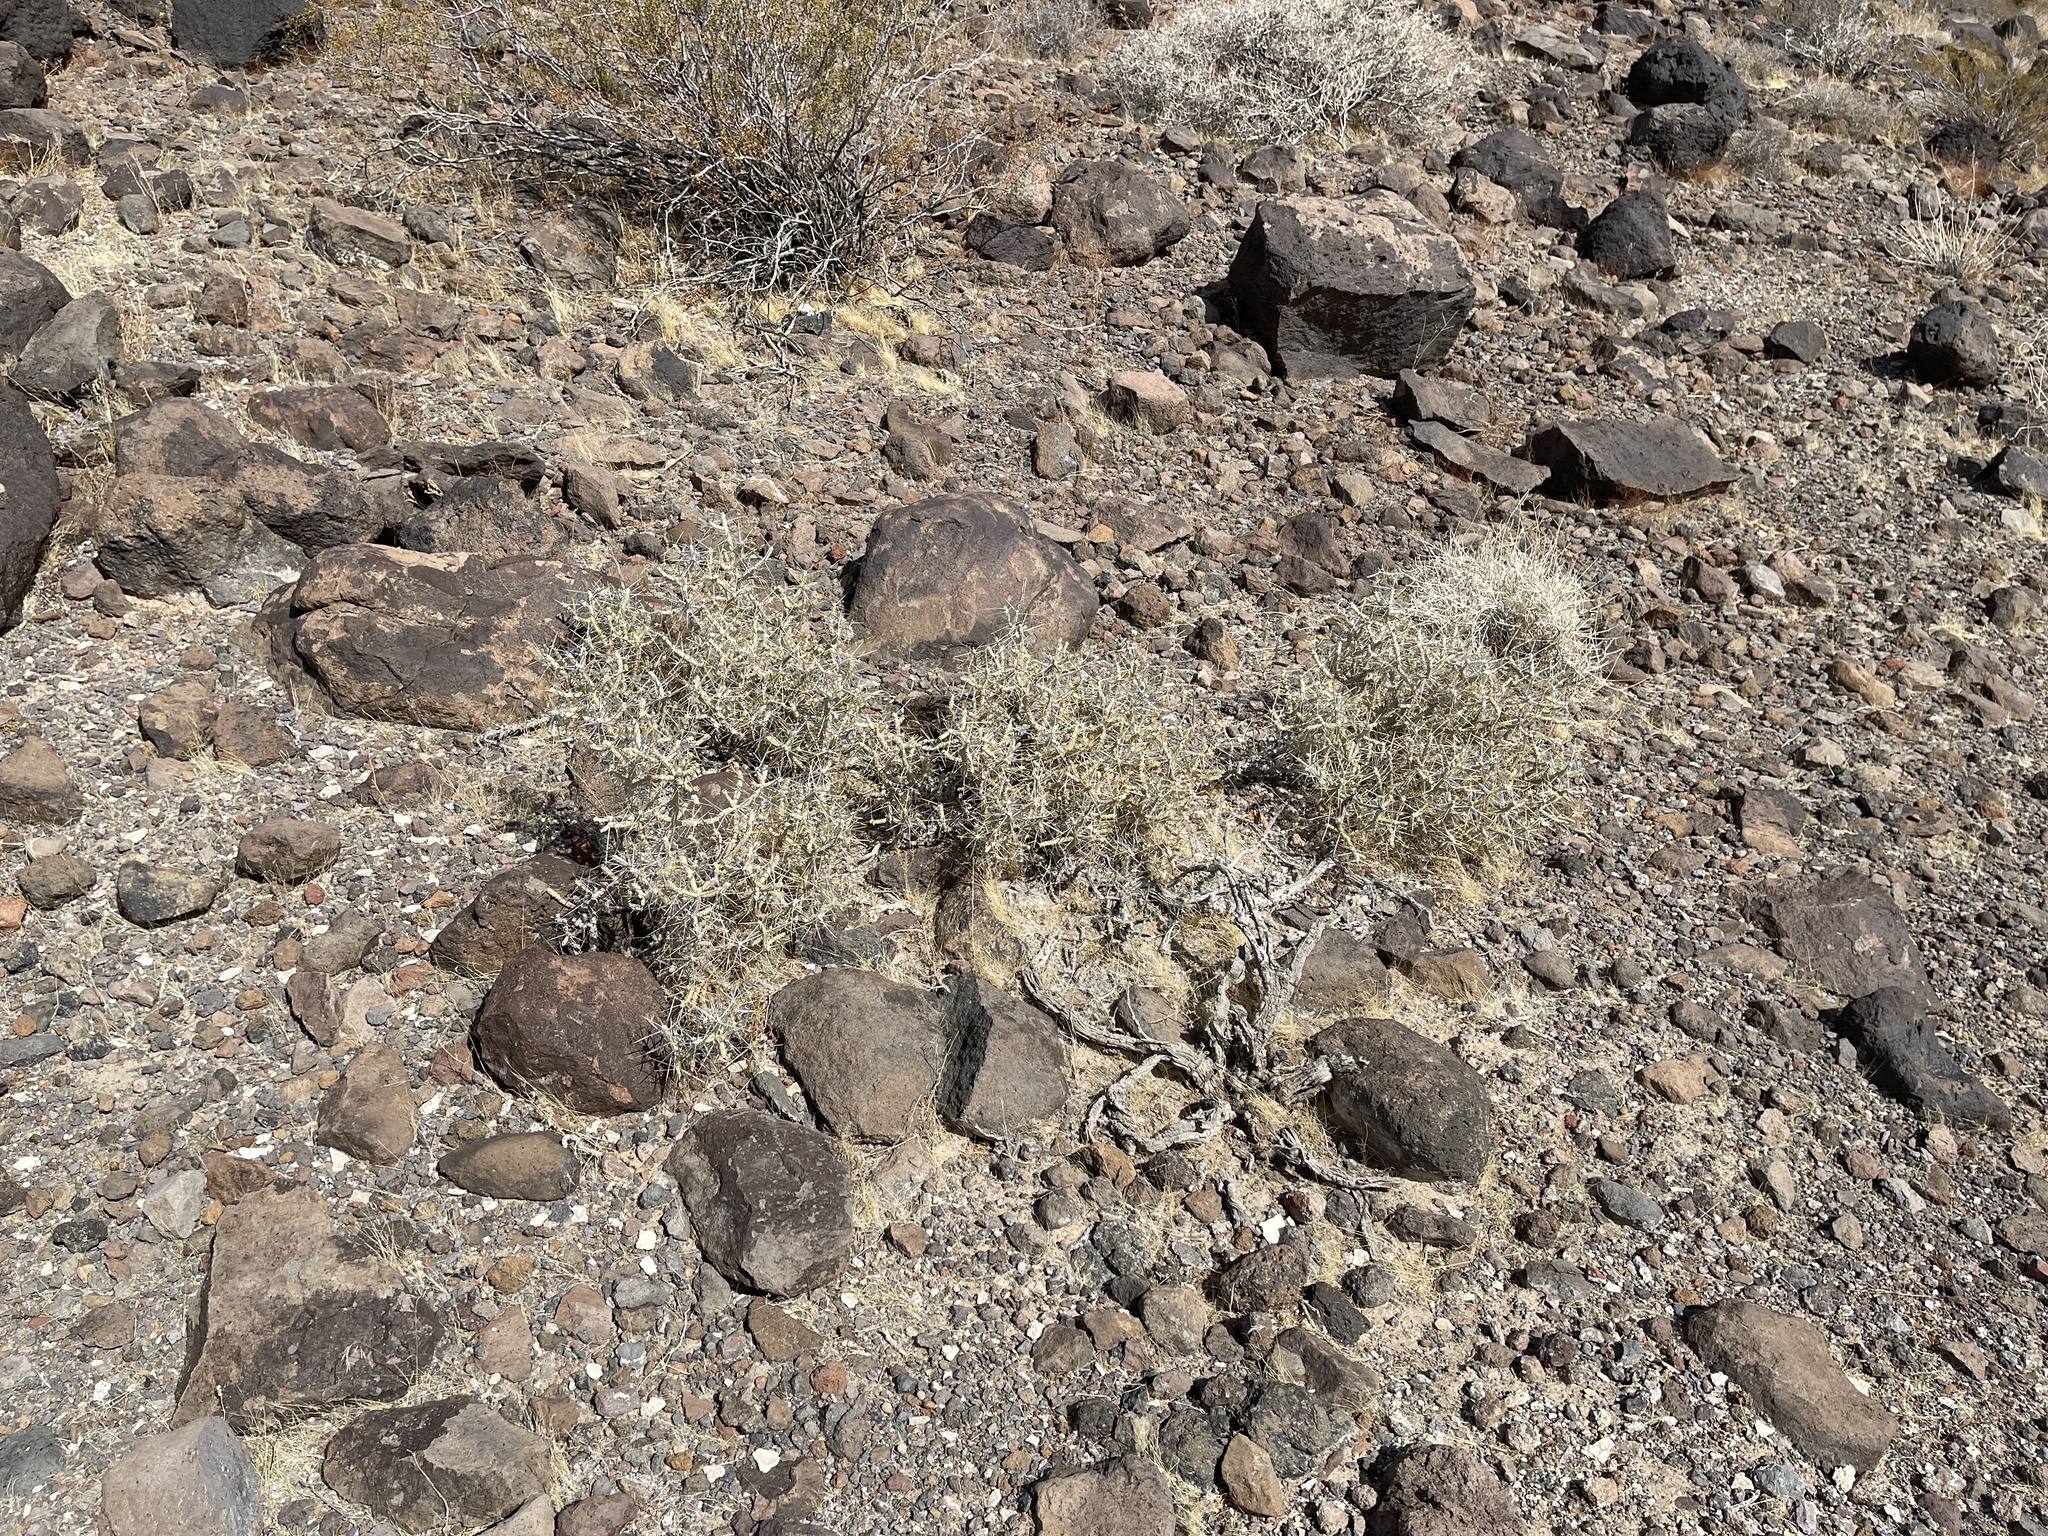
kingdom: Plantae
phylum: Tracheophyta
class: Magnoliopsida
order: Caryophyllales
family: Cactaceae
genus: Cylindropuntia
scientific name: Cylindropuntia ramosissima
